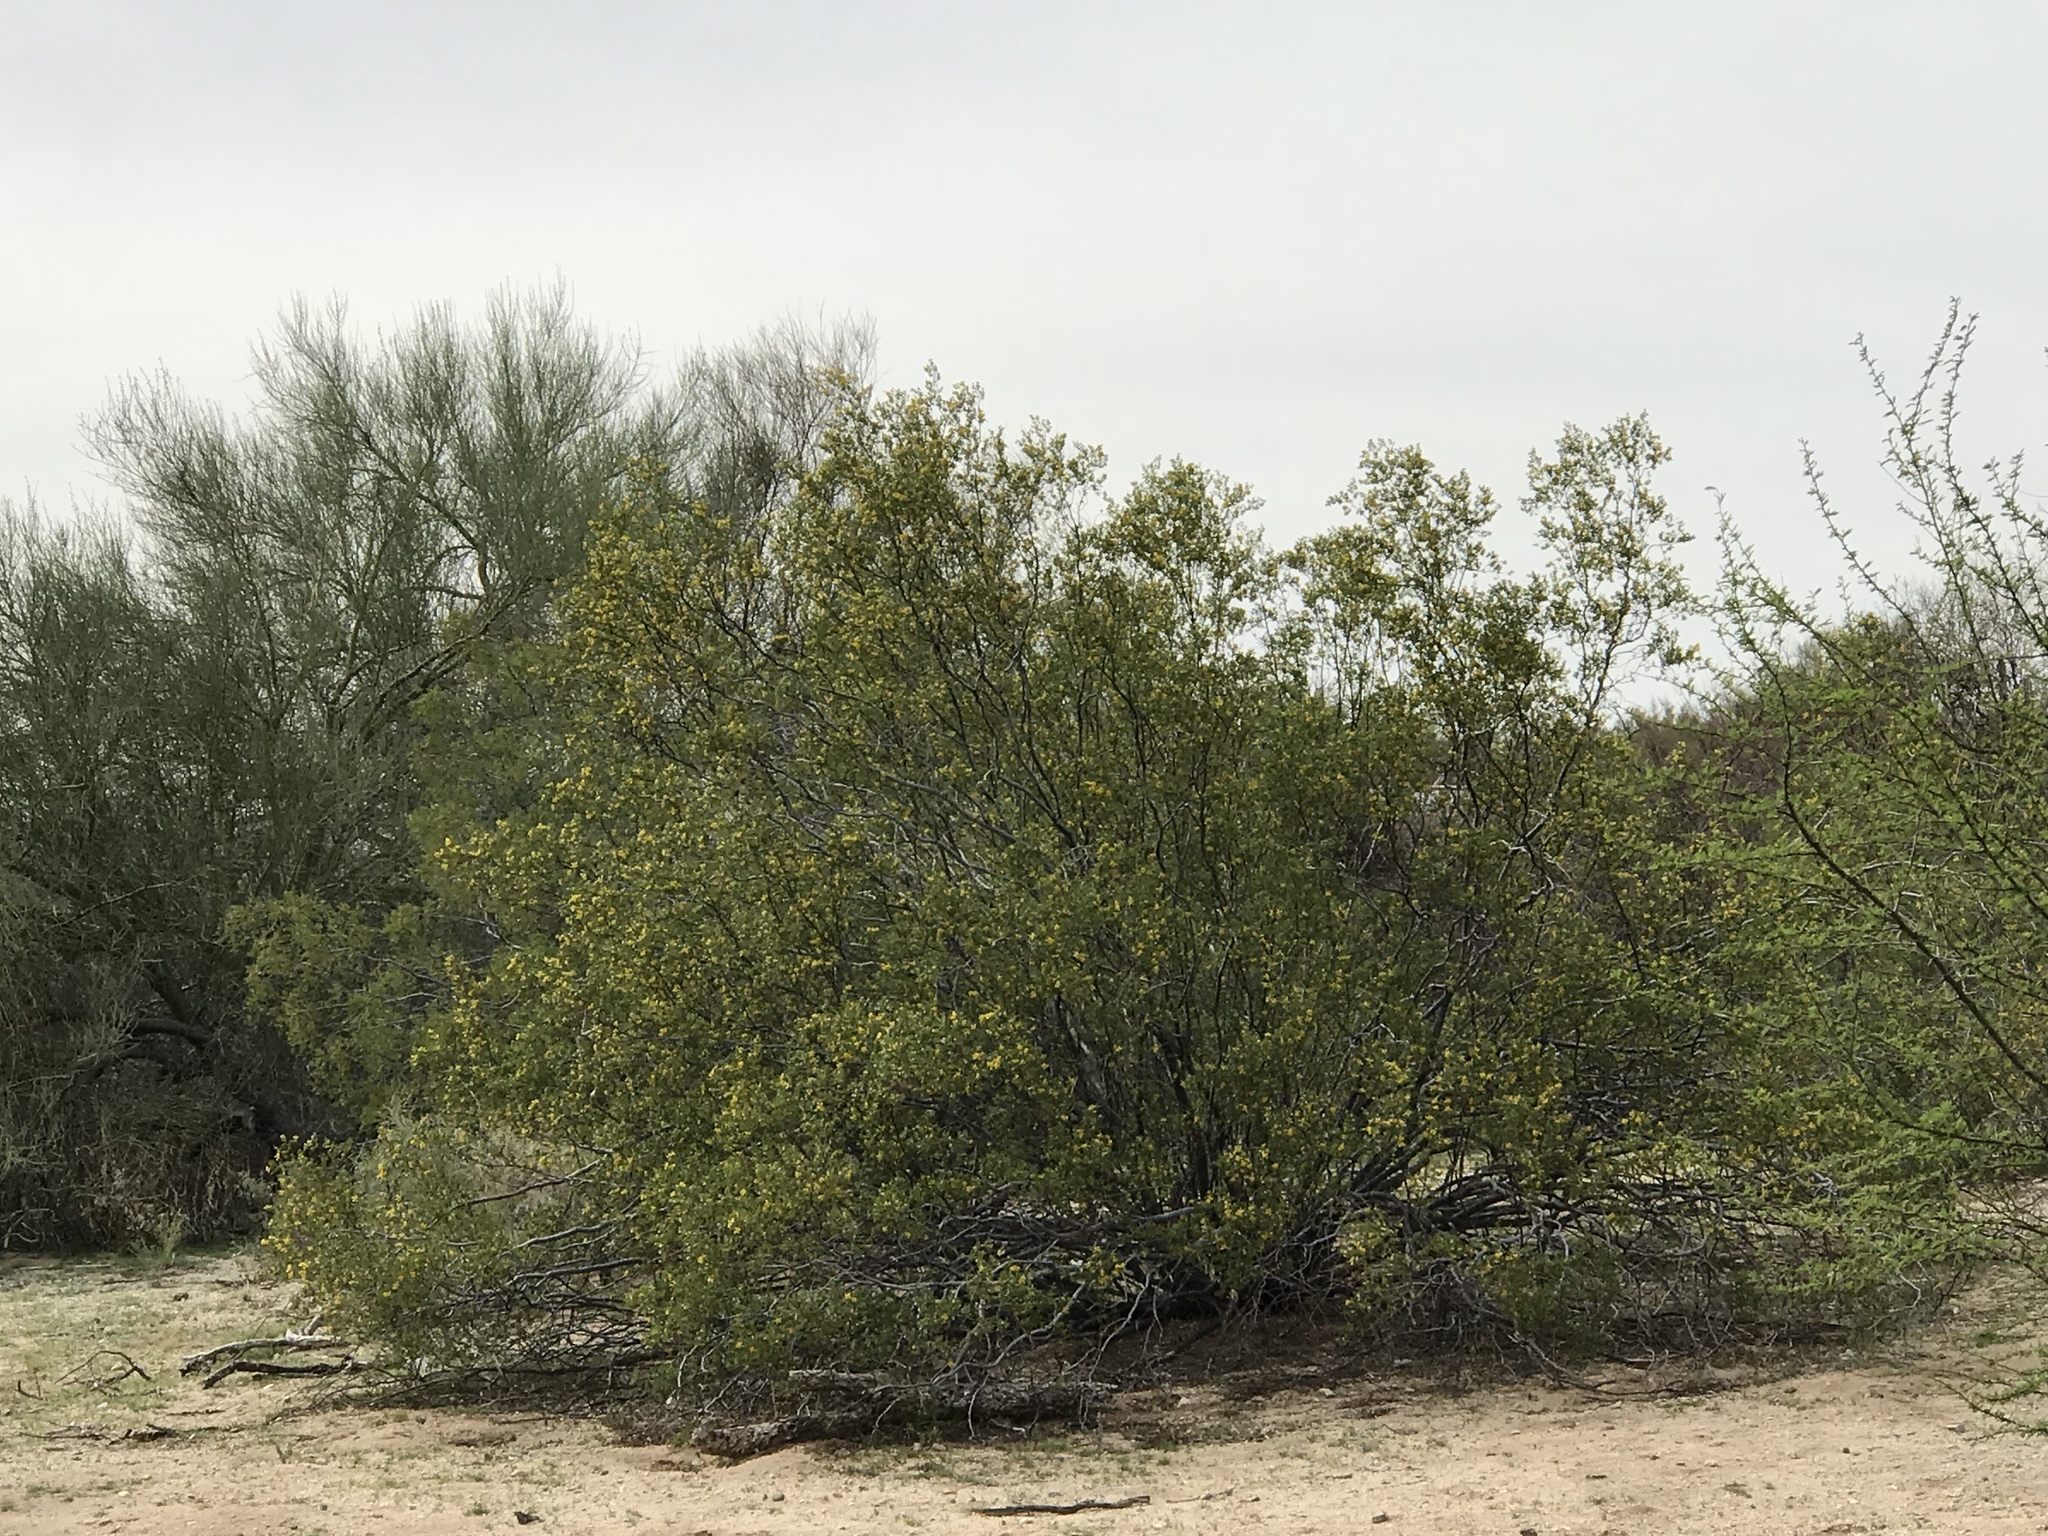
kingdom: Plantae
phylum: Tracheophyta
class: Magnoliopsida
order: Zygophyllales
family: Zygophyllaceae
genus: Larrea
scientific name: Larrea tridentata
